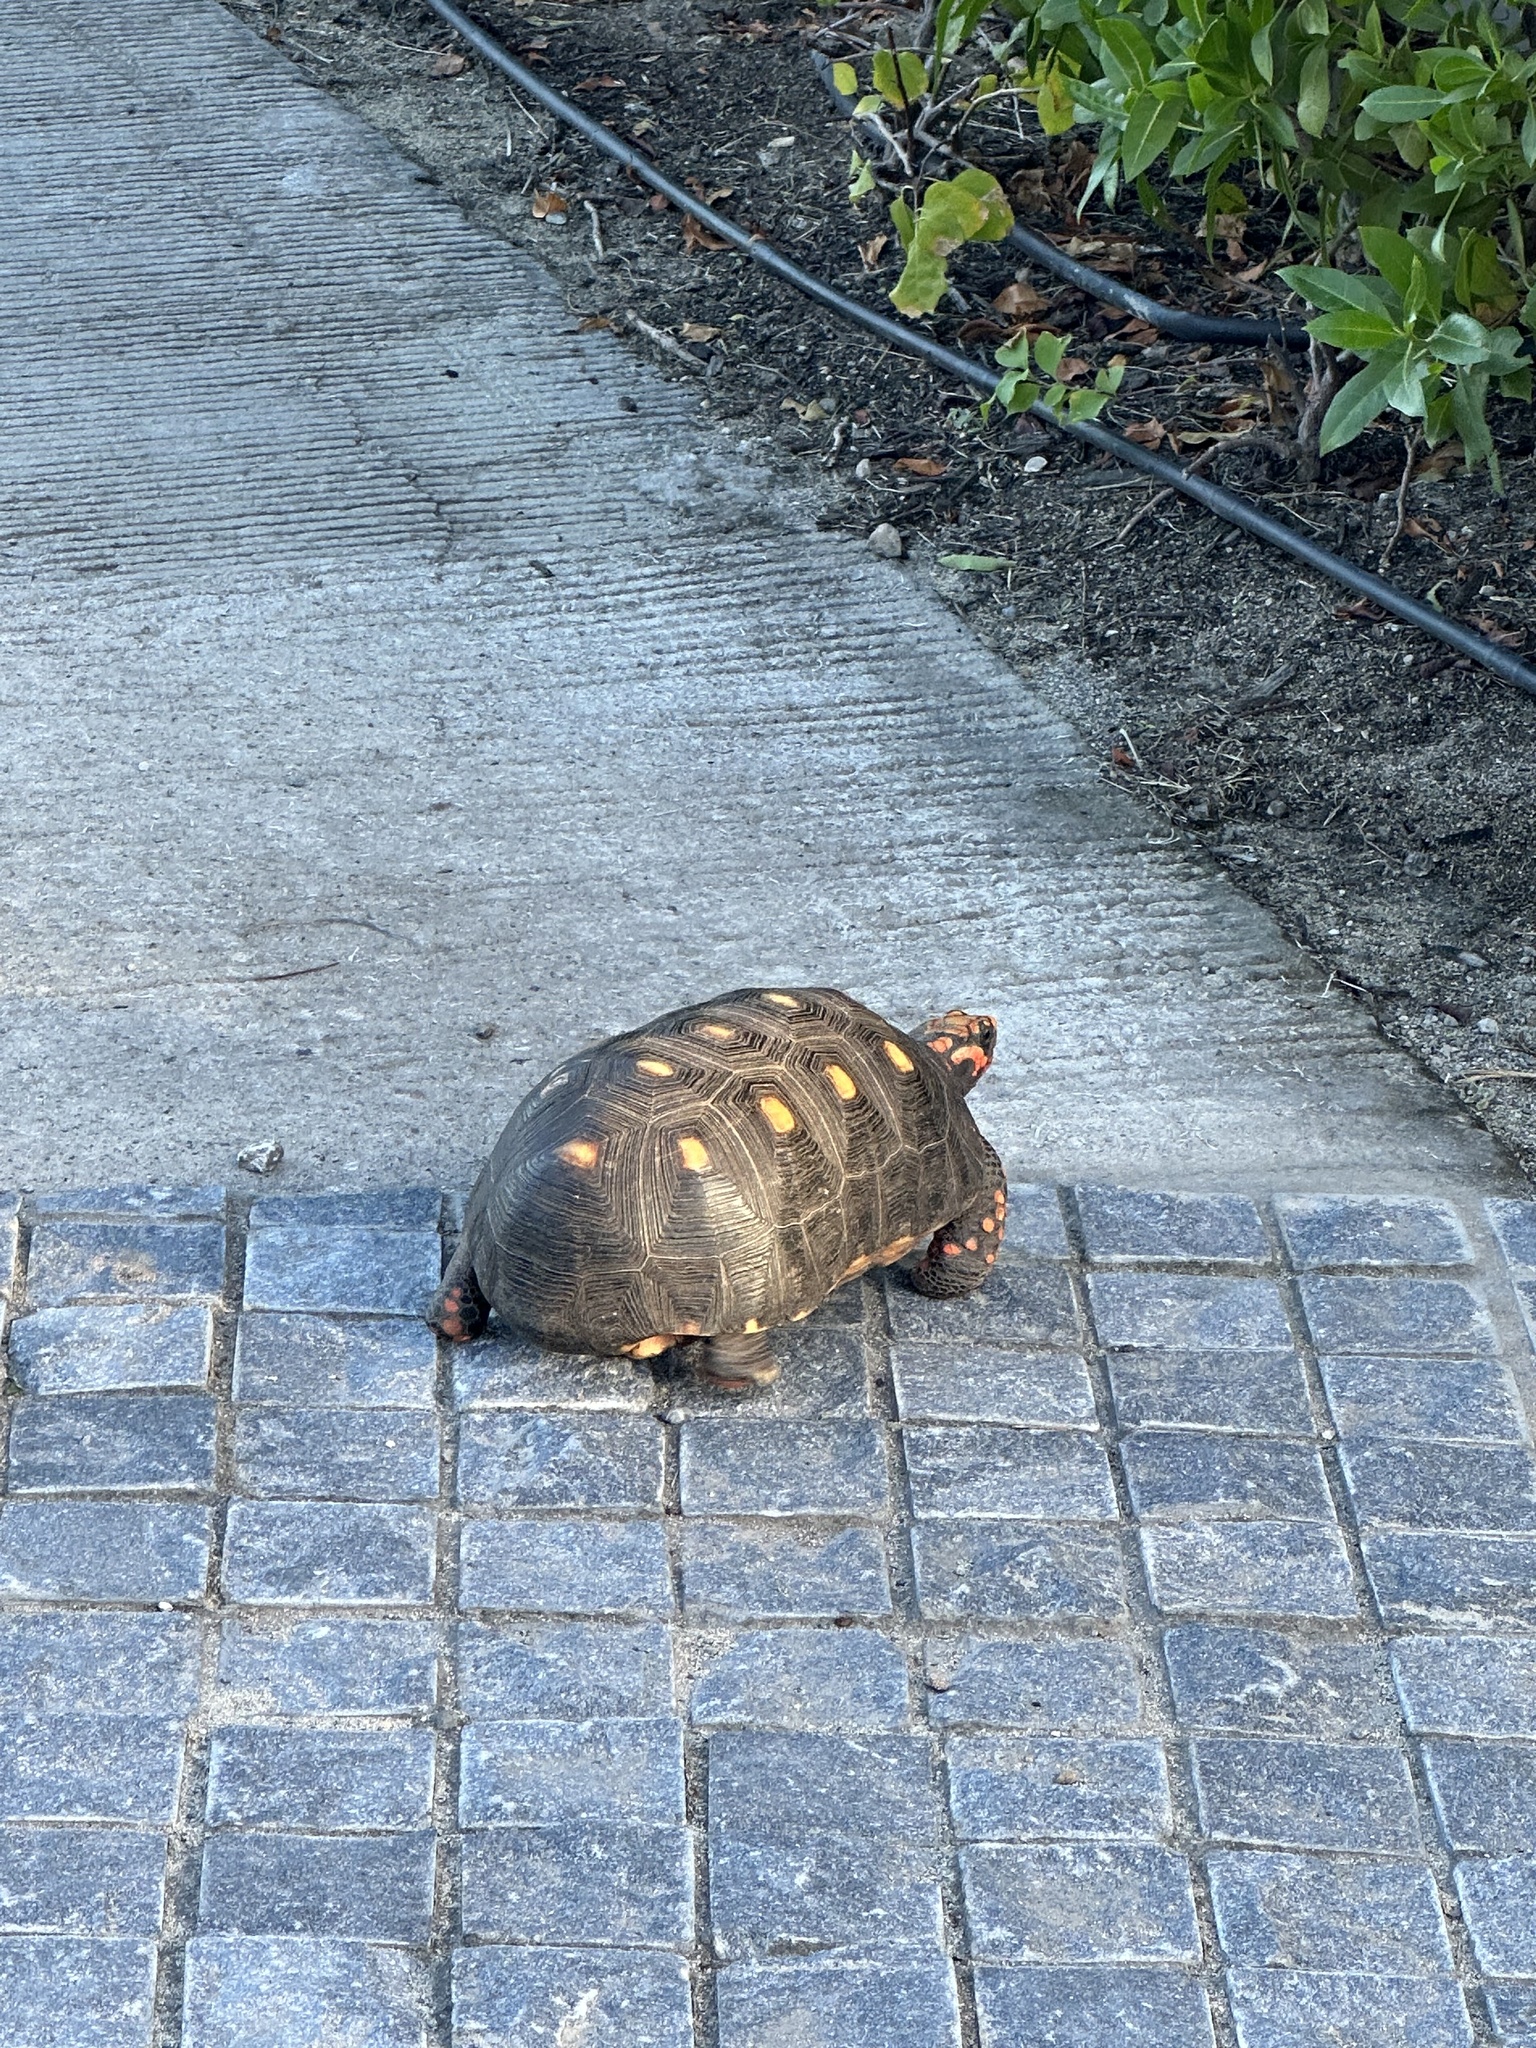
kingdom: Animalia
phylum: Chordata
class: Testudines
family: Testudinidae
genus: Chelonoidis
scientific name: Chelonoidis carbonarius
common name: Red-footed tortoise
